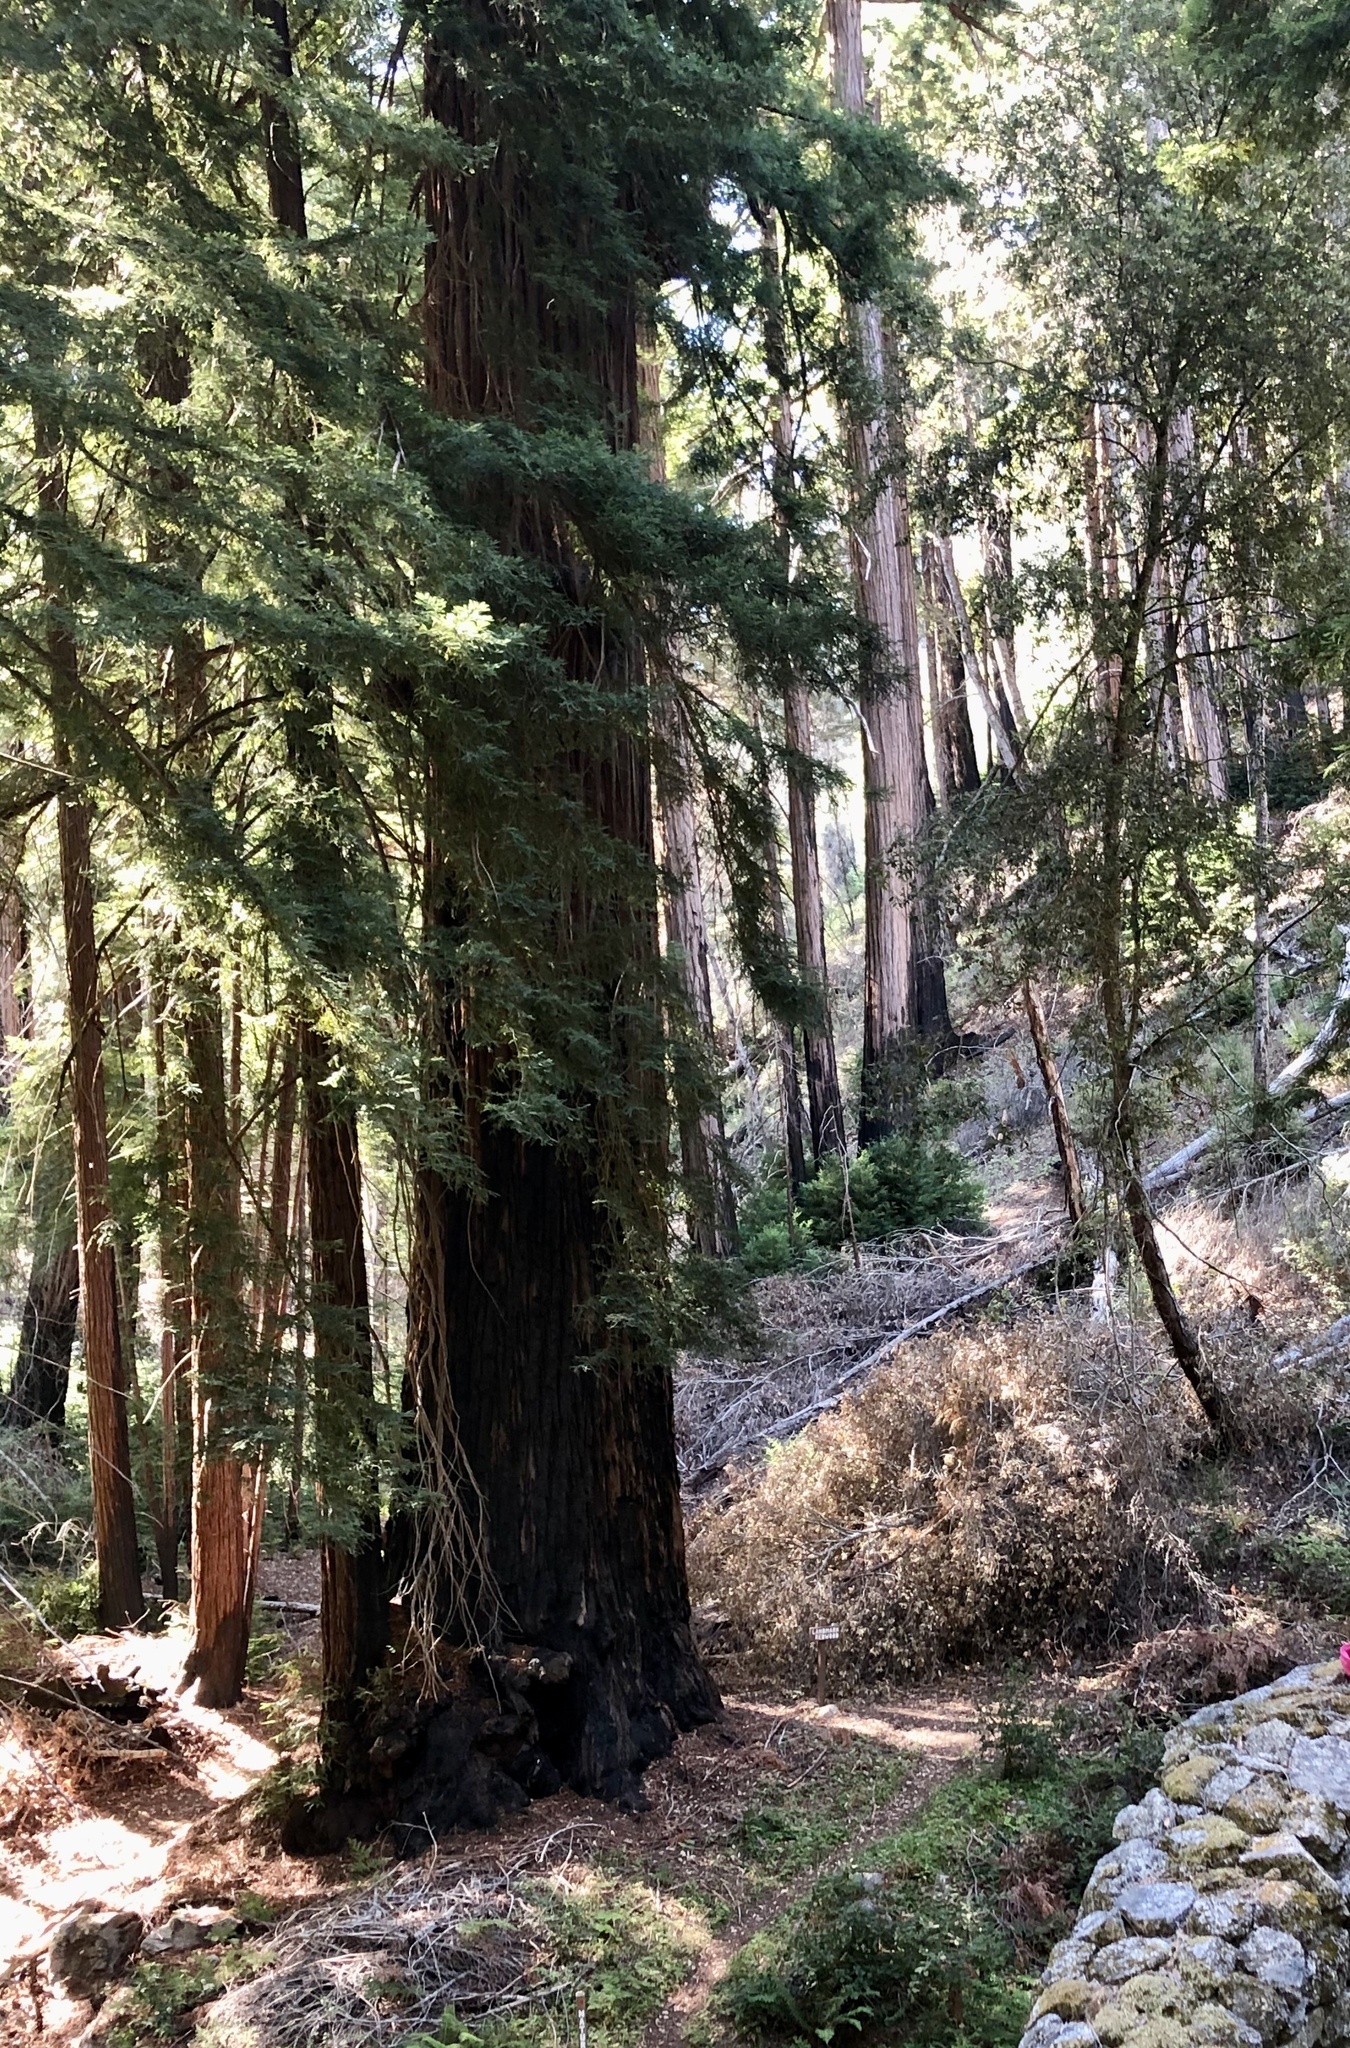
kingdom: Plantae
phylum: Tracheophyta
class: Pinopsida
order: Pinales
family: Cupressaceae
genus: Sequoia
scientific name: Sequoia sempervirens
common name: Coast redwood
